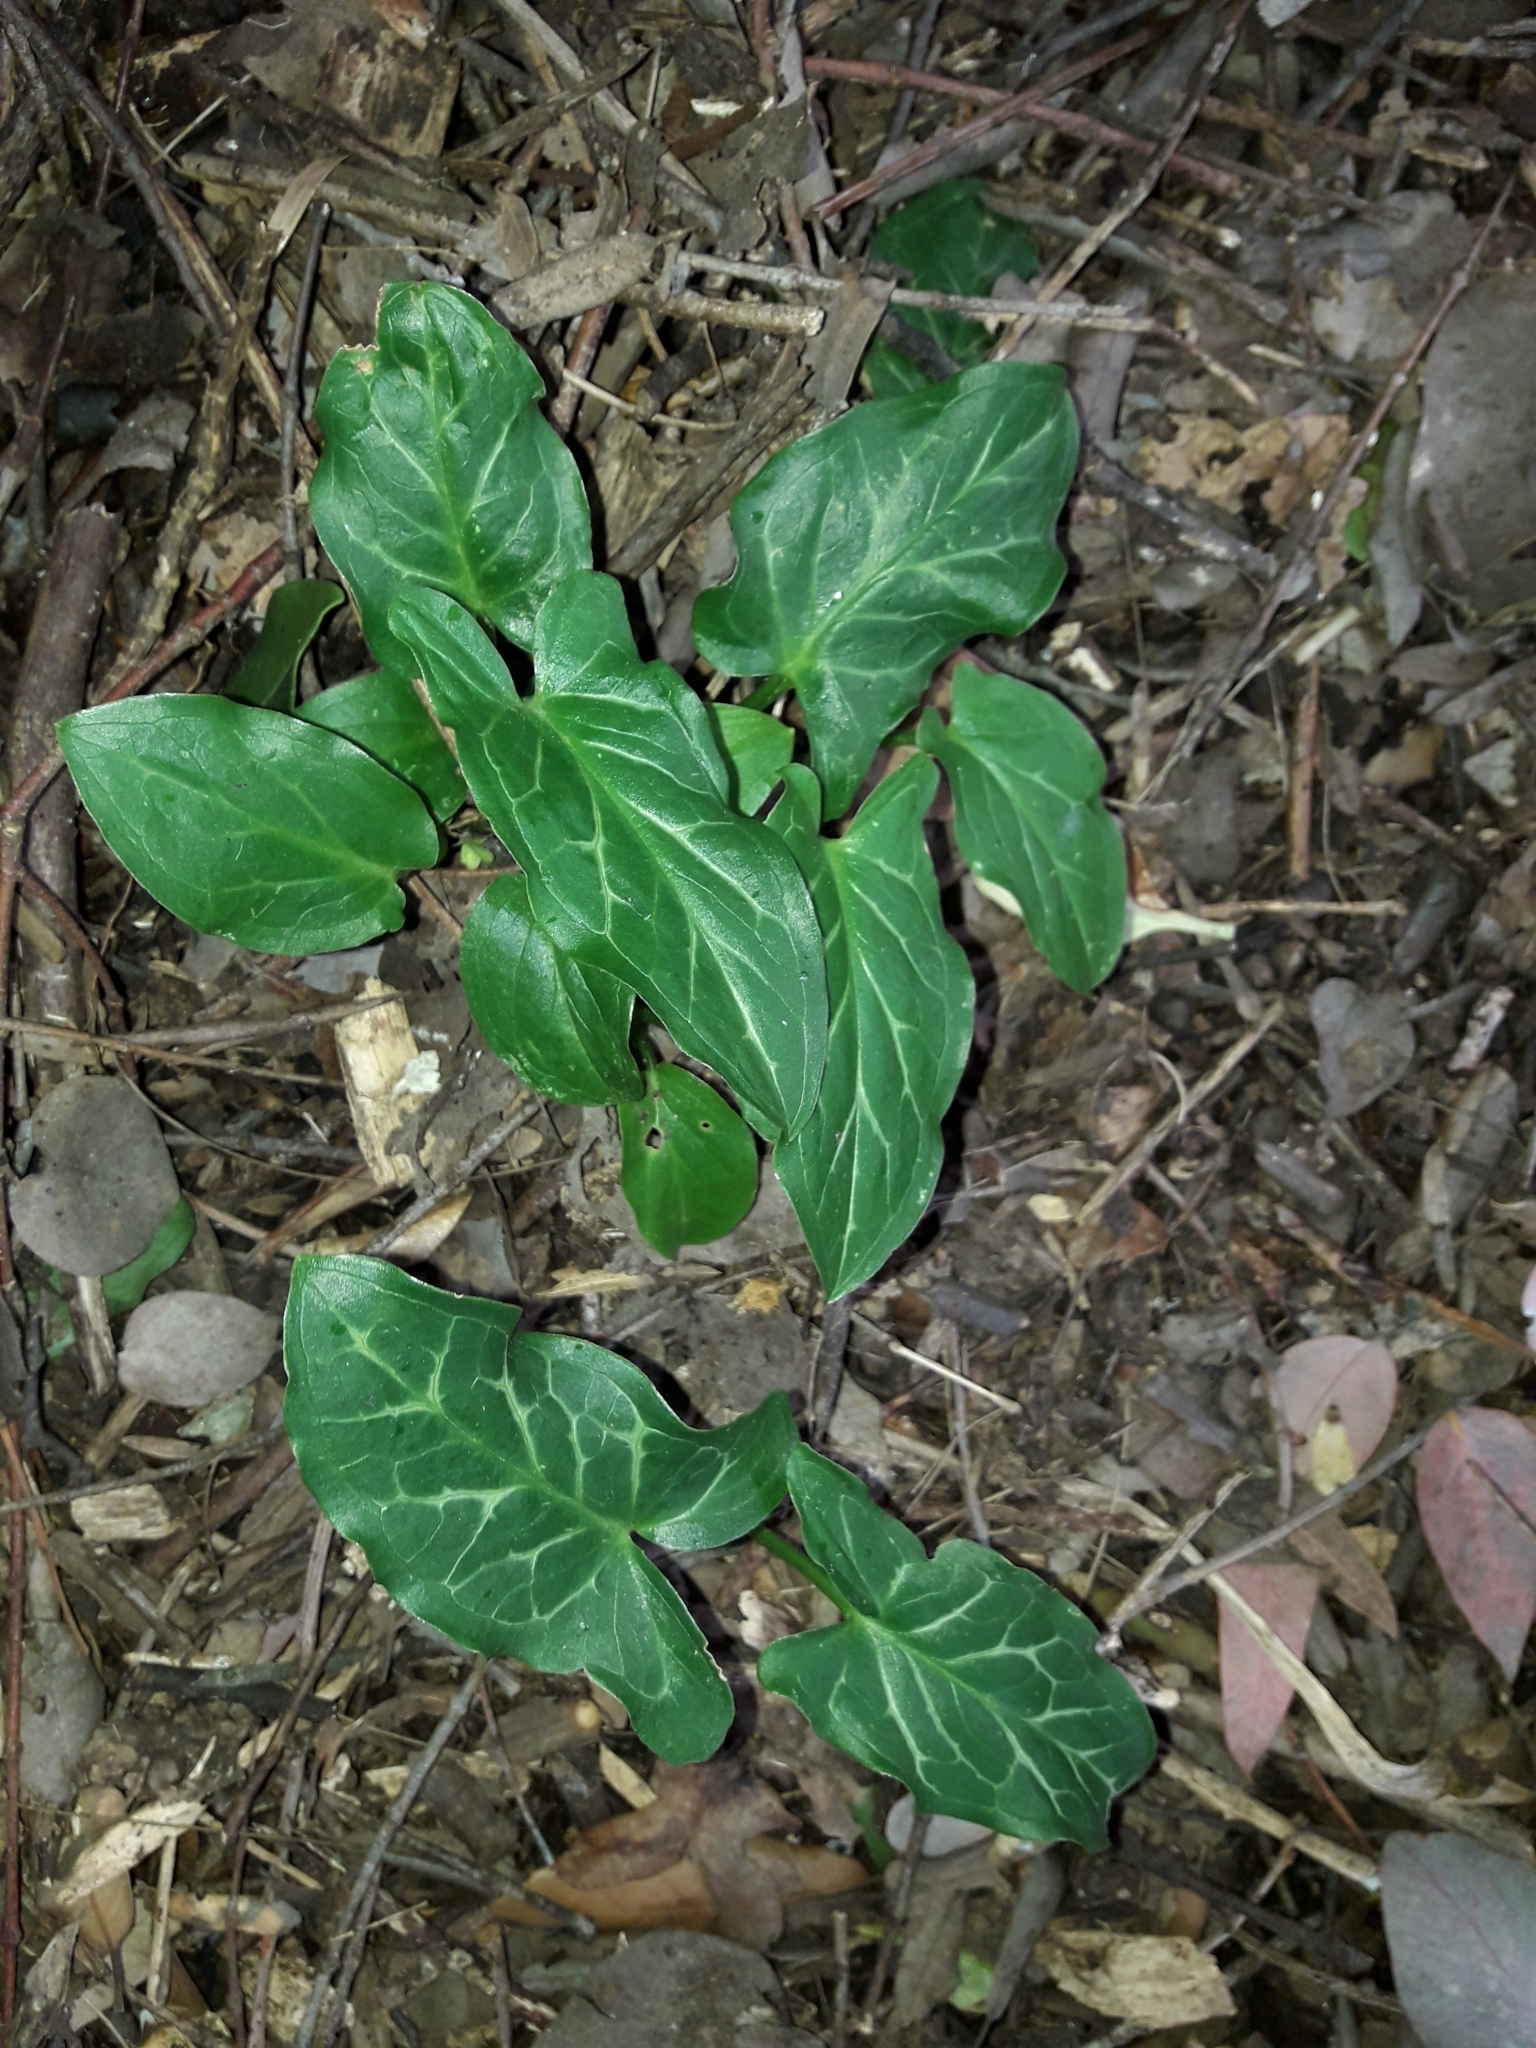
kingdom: Plantae
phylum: Tracheophyta
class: Liliopsida
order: Alismatales
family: Araceae
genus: Arum
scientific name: Arum italicum
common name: Italian lords-and-ladies
